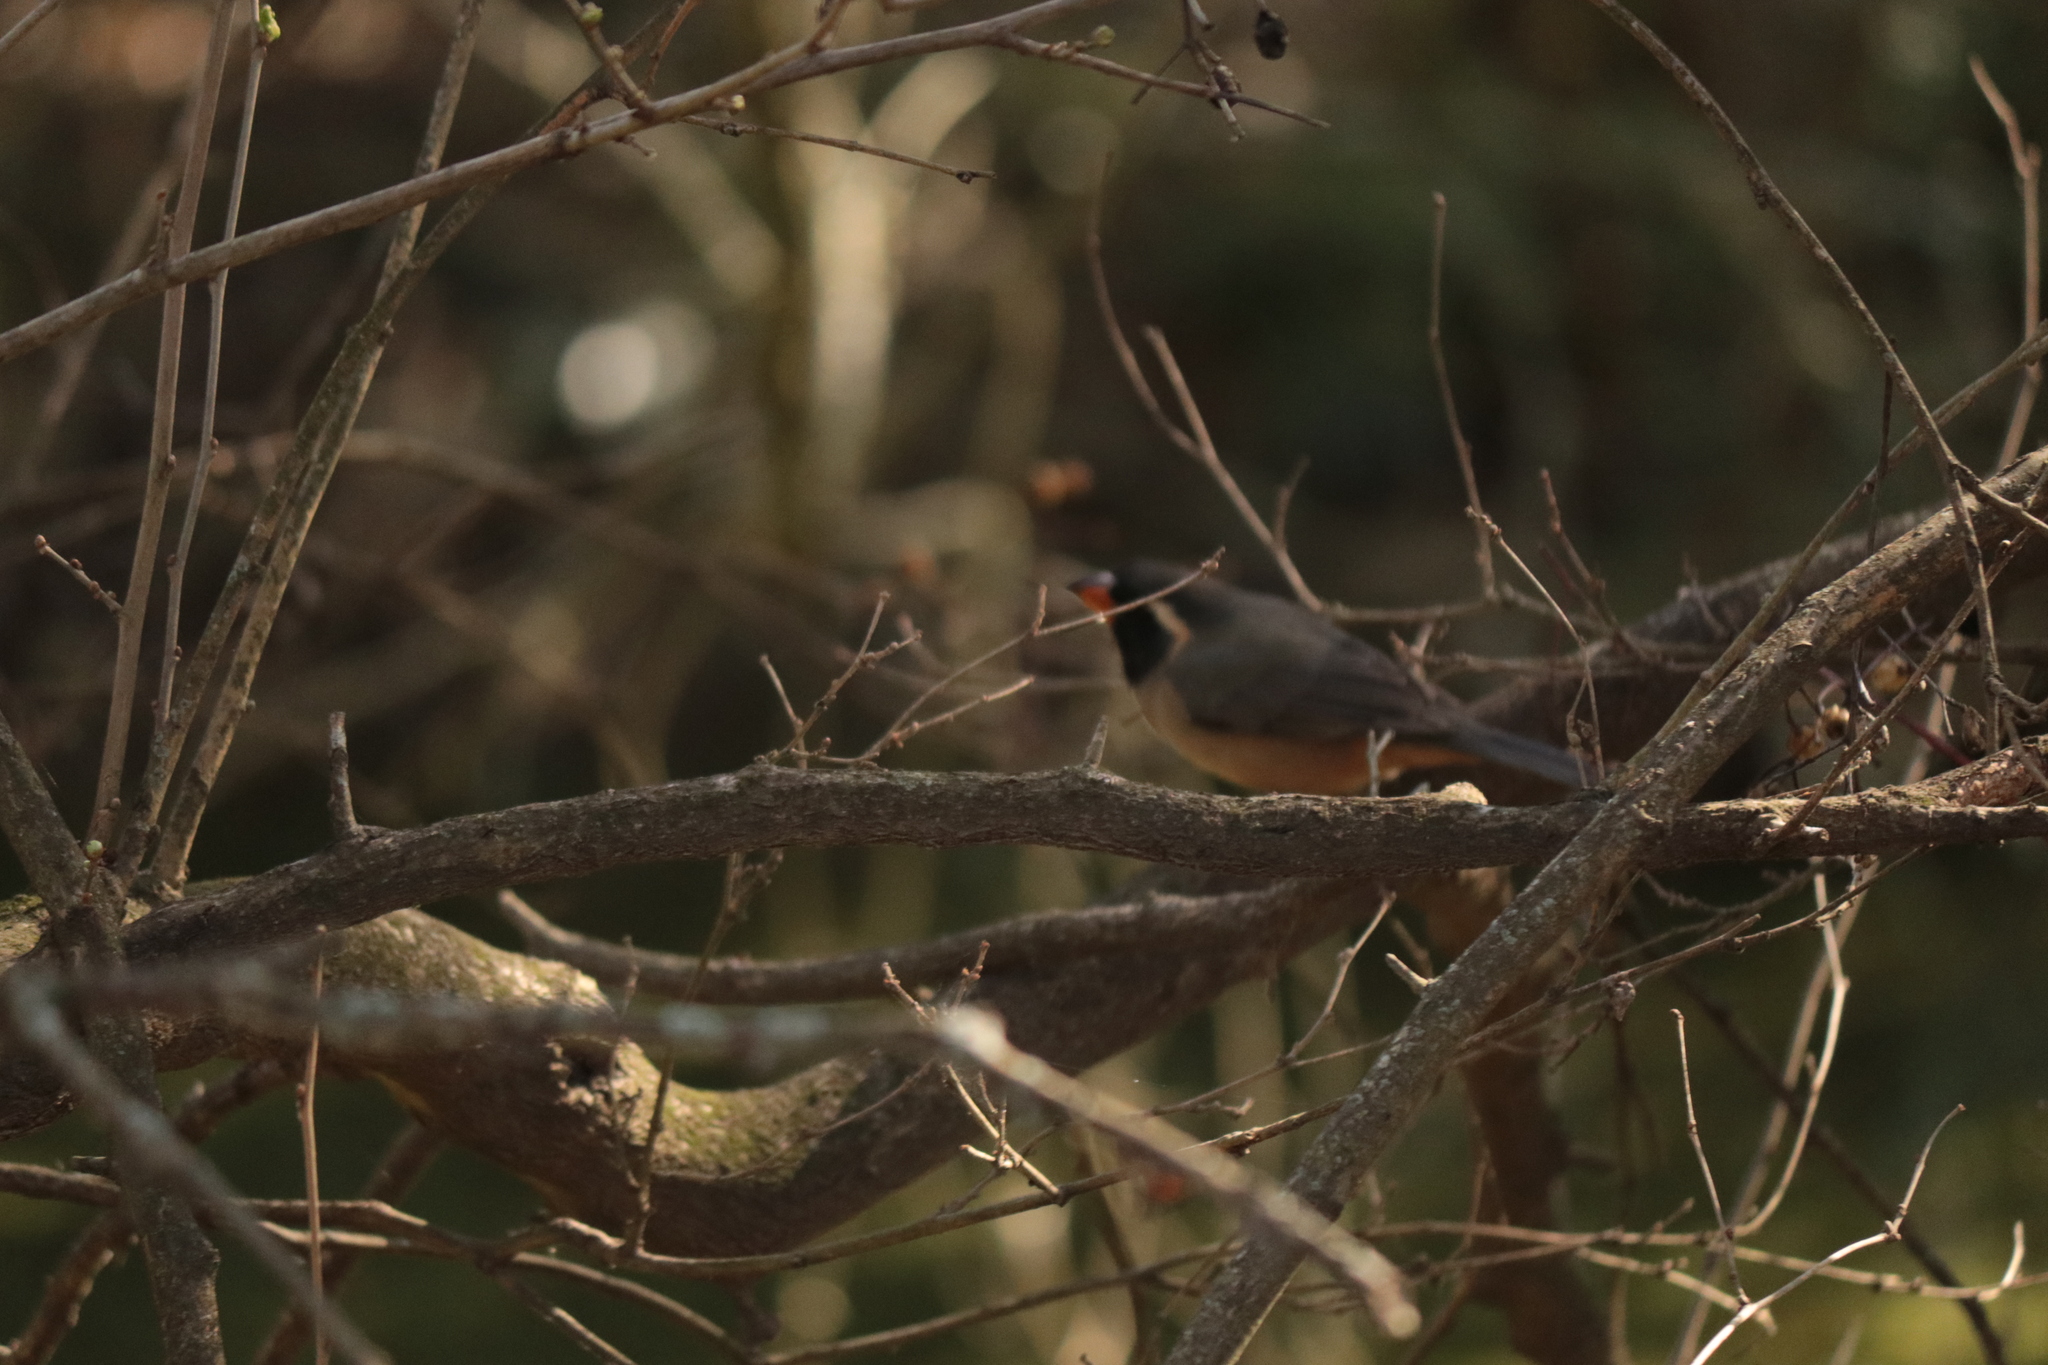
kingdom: Animalia
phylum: Chordata
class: Aves
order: Passeriformes
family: Thraupidae
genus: Saltator
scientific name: Saltator aurantiirostris
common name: Golden-billed saltator
